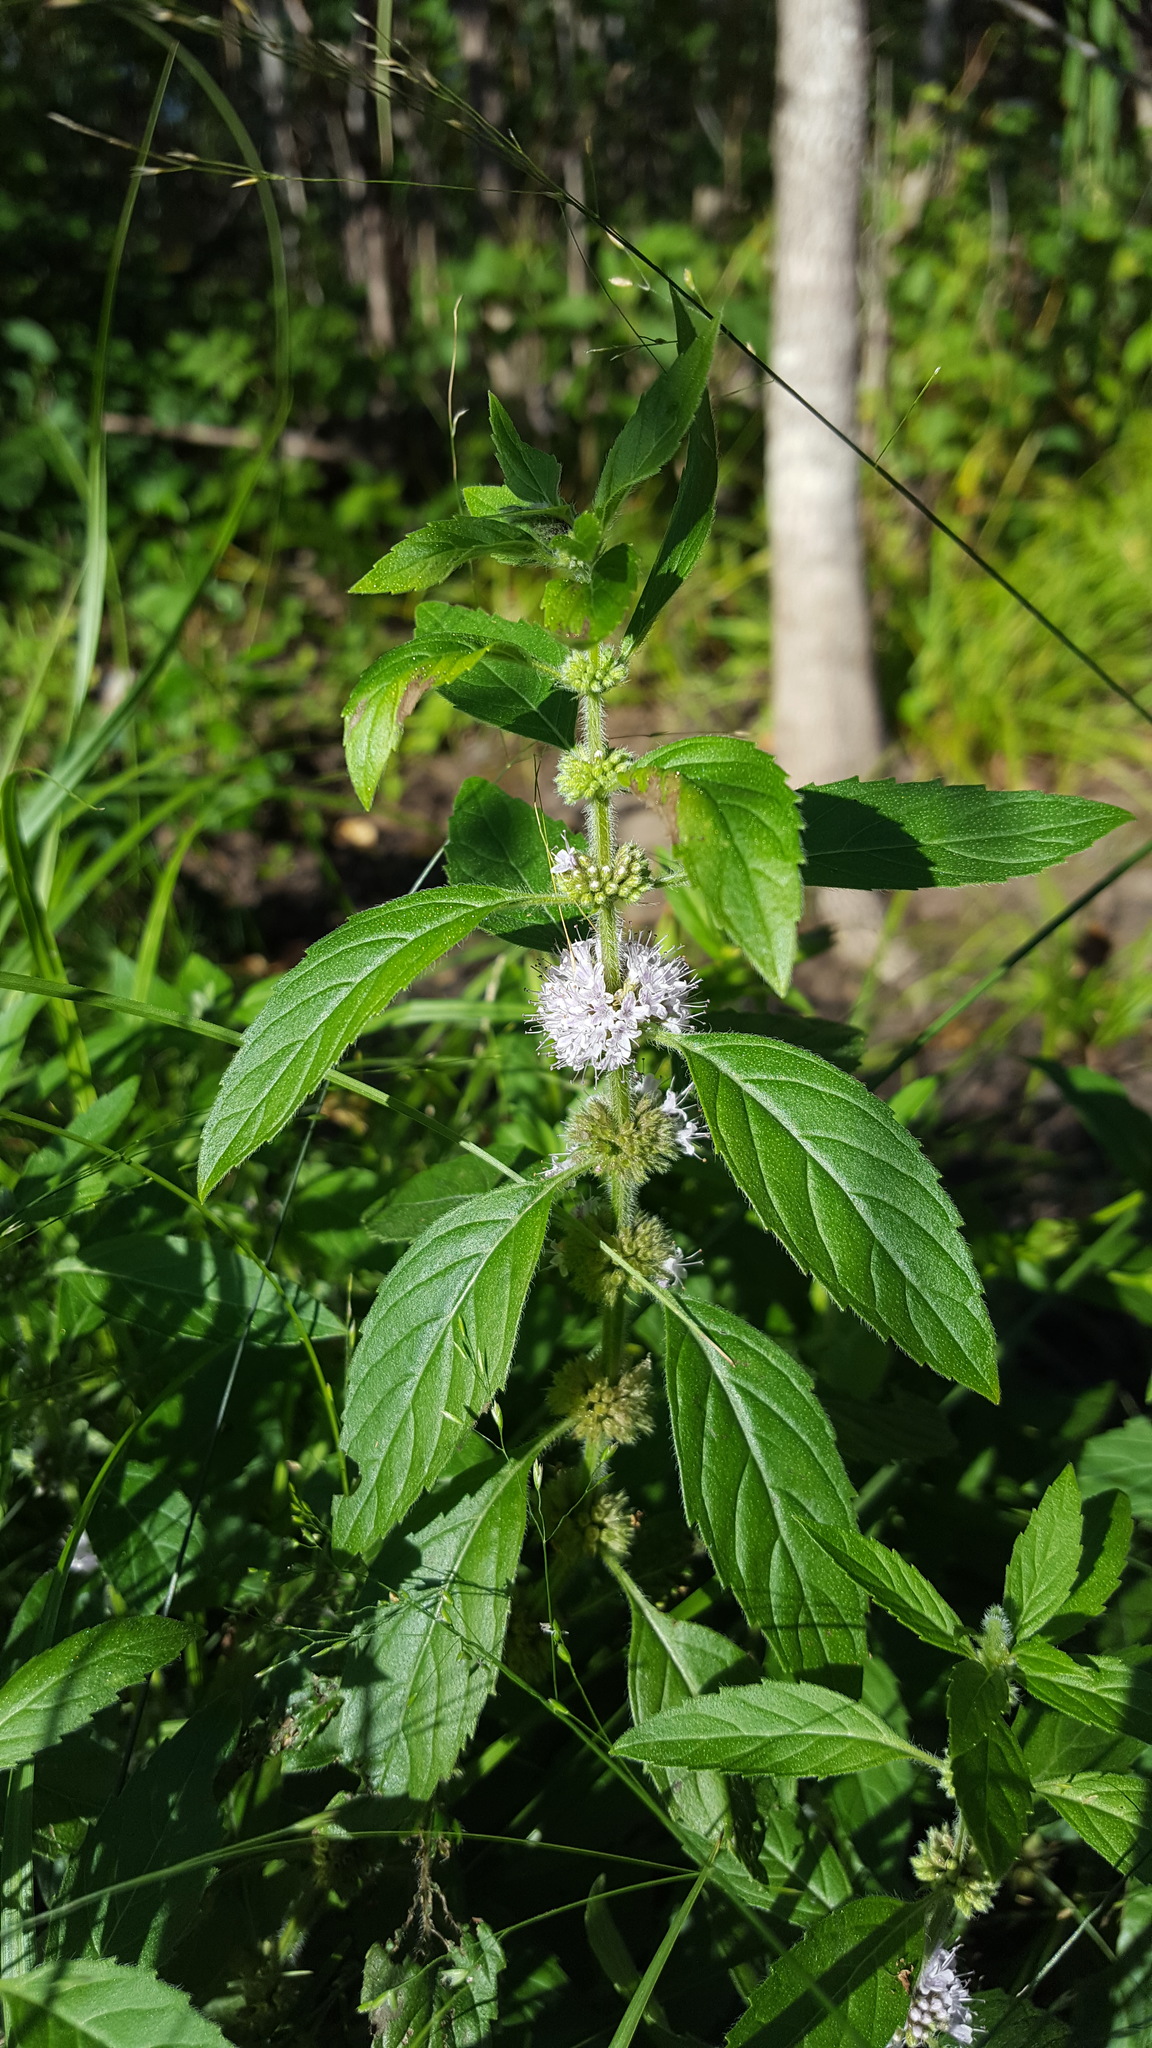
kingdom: Plantae
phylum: Tracheophyta
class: Magnoliopsida
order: Lamiales
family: Lamiaceae
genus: Mentha
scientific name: Mentha canadensis
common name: American corn mint
